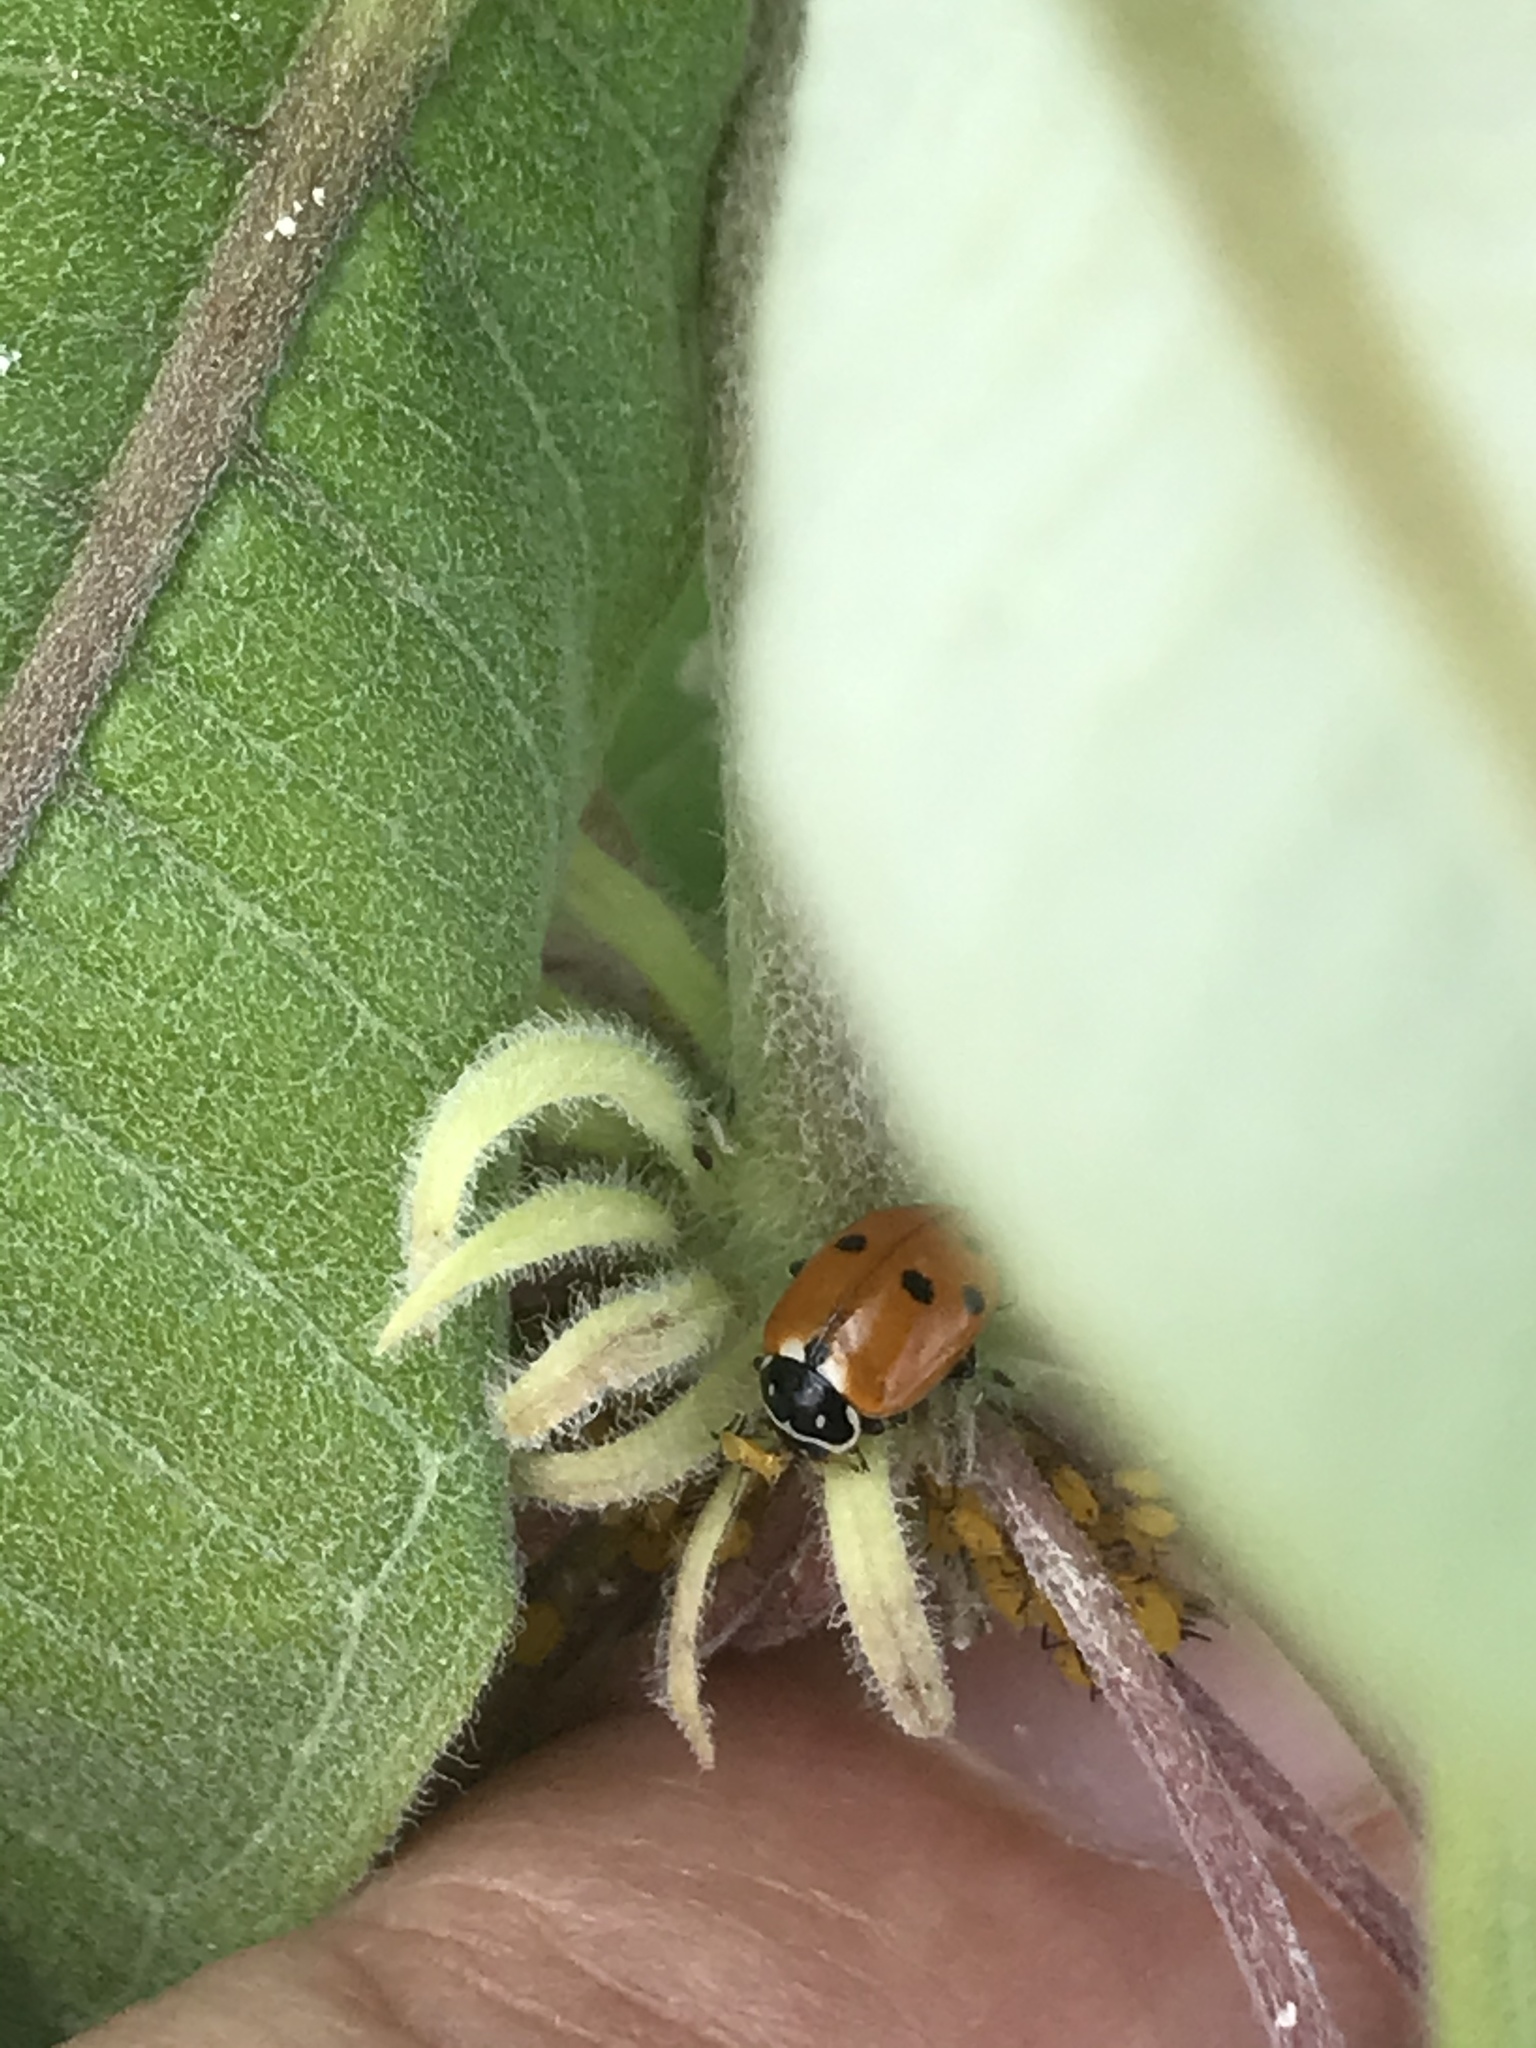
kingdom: Animalia
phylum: Arthropoda
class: Insecta
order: Coleoptera
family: Coccinellidae
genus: Hippodamia
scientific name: Hippodamia variegata
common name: Ladybird beetle
